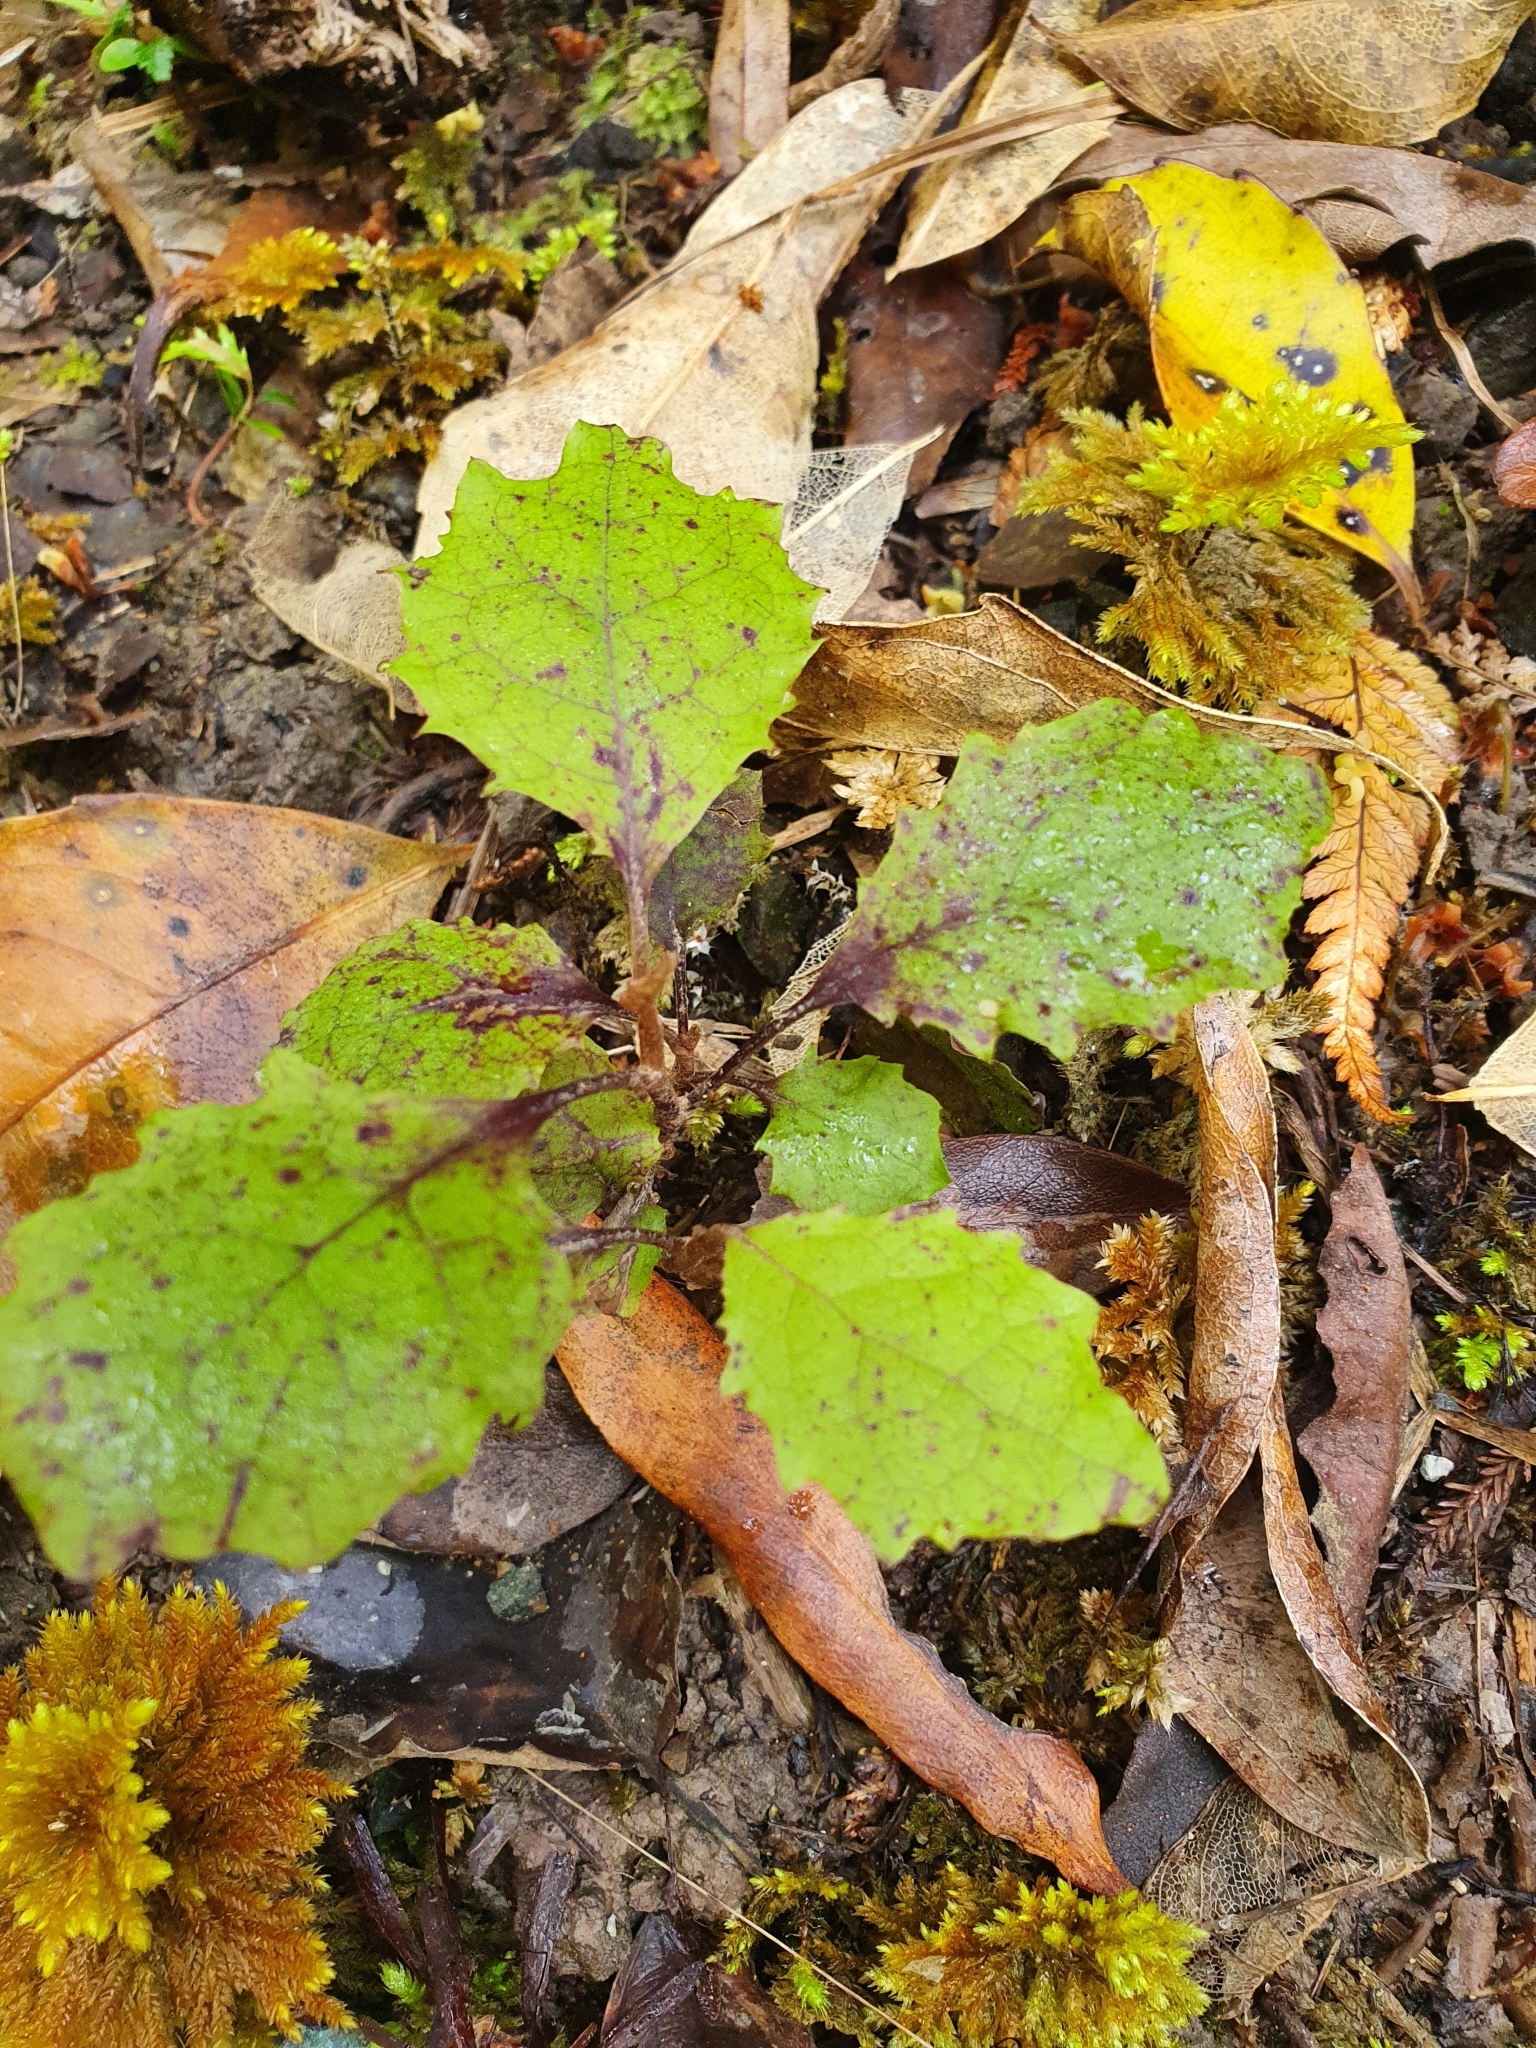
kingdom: Plantae
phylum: Tracheophyta
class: Magnoliopsida
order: Asterales
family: Asteraceae
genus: Olearia
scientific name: Olearia rani
